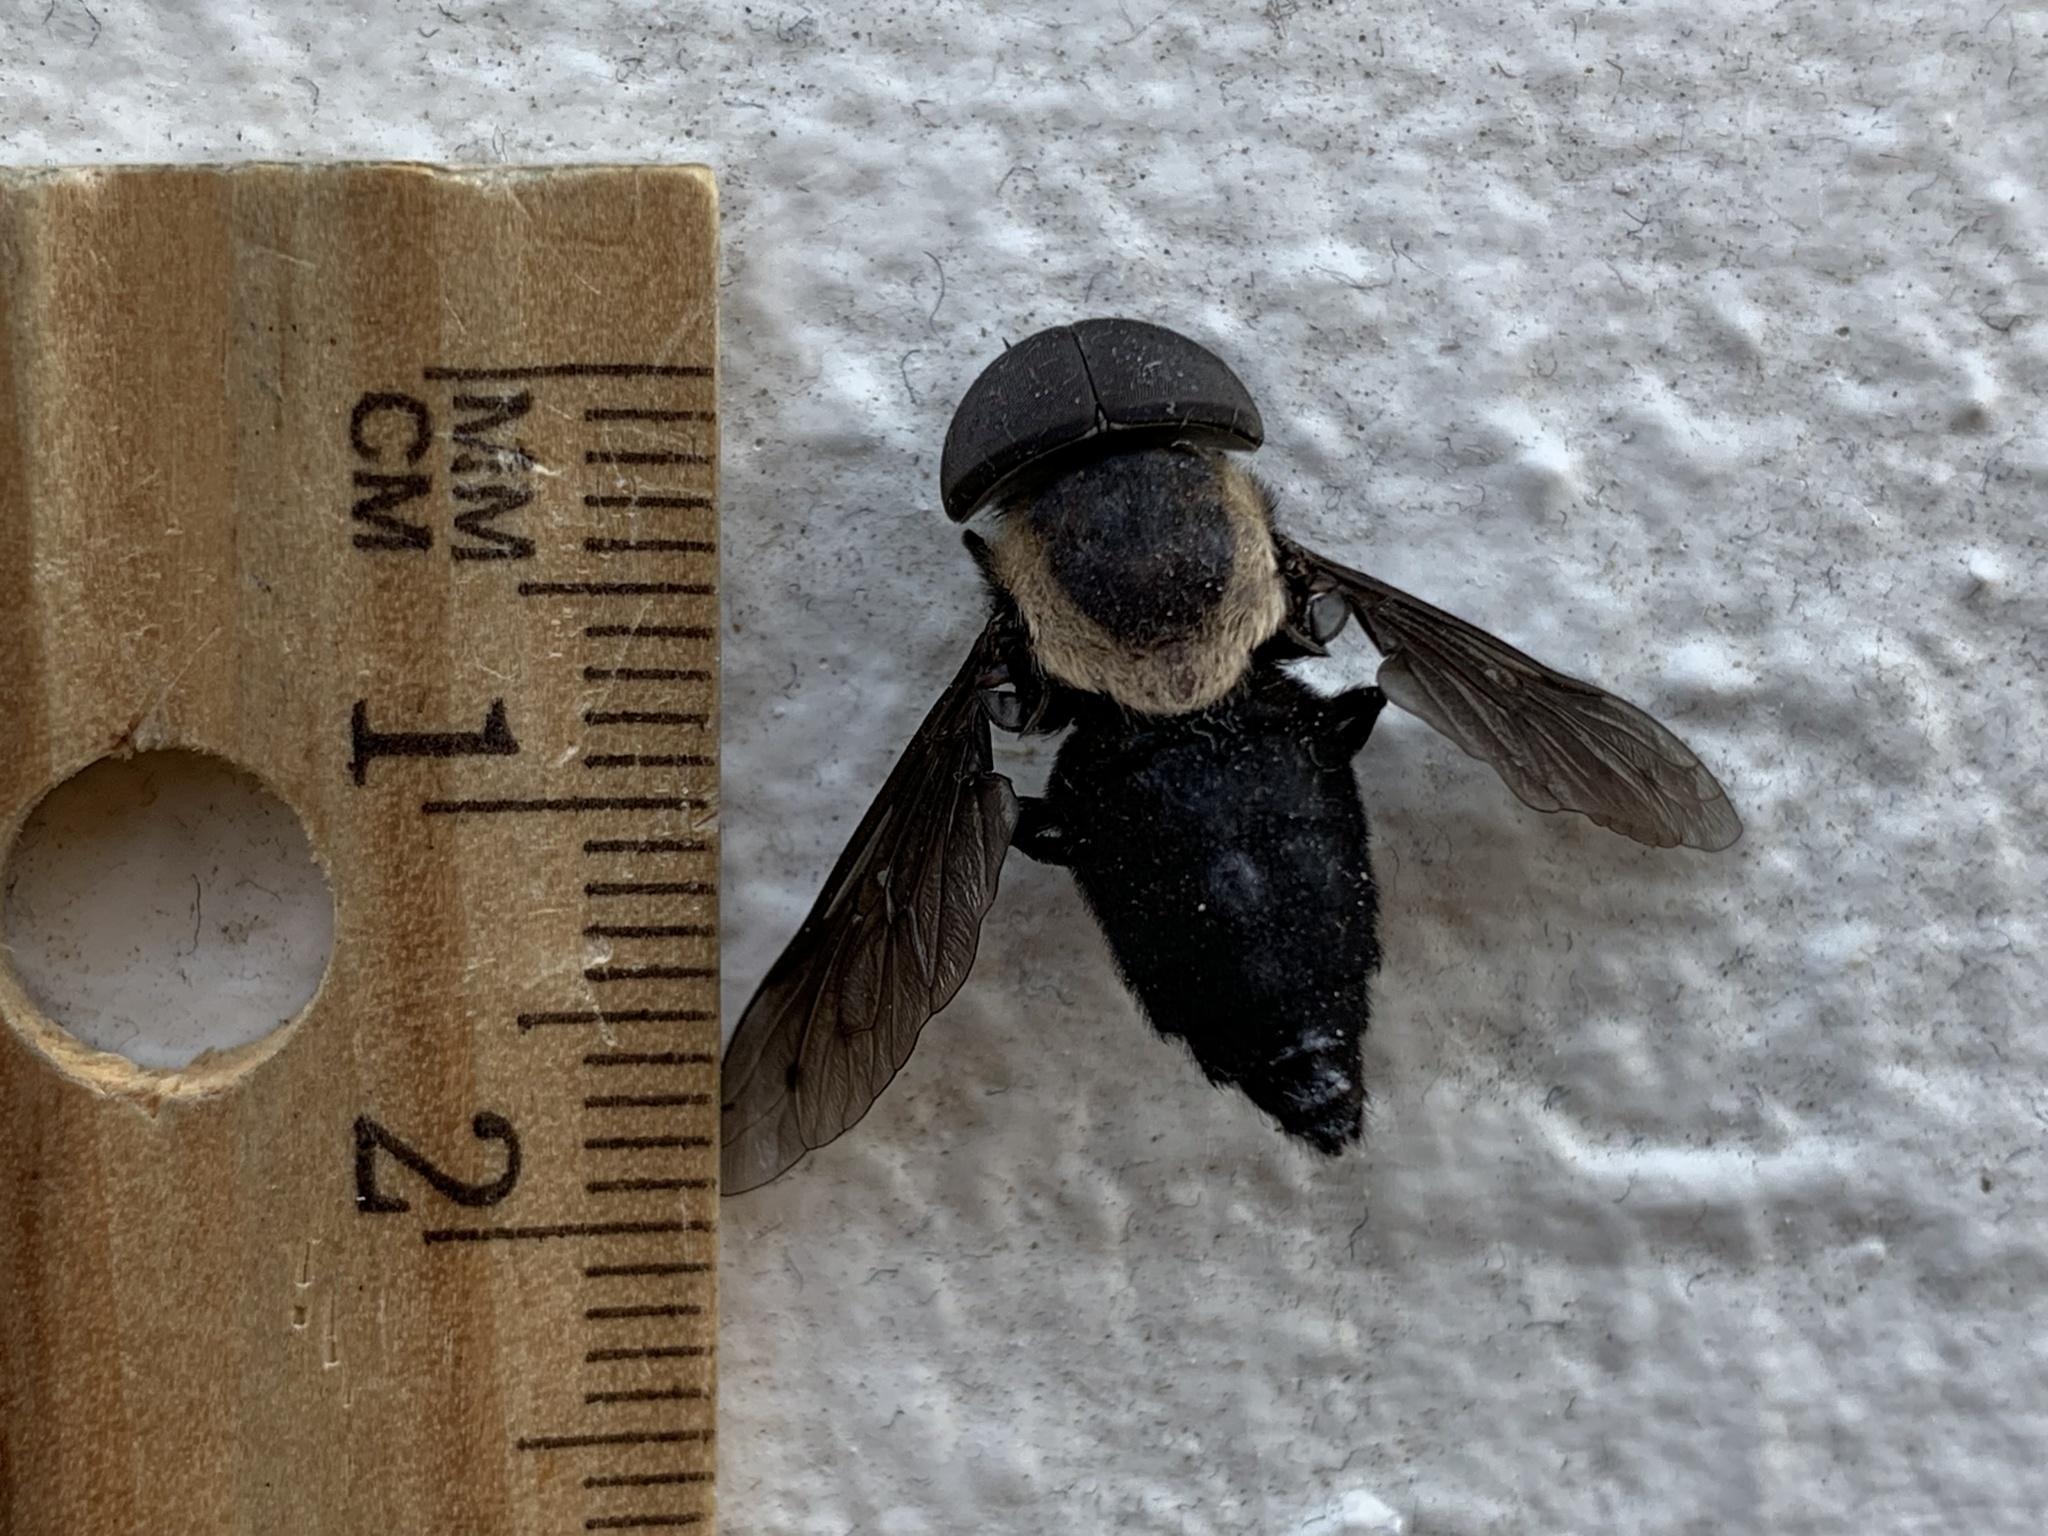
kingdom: Animalia
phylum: Arthropoda
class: Insecta
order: Diptera
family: Tabanidae
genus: Tabanus
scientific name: Tabanus punctifer
